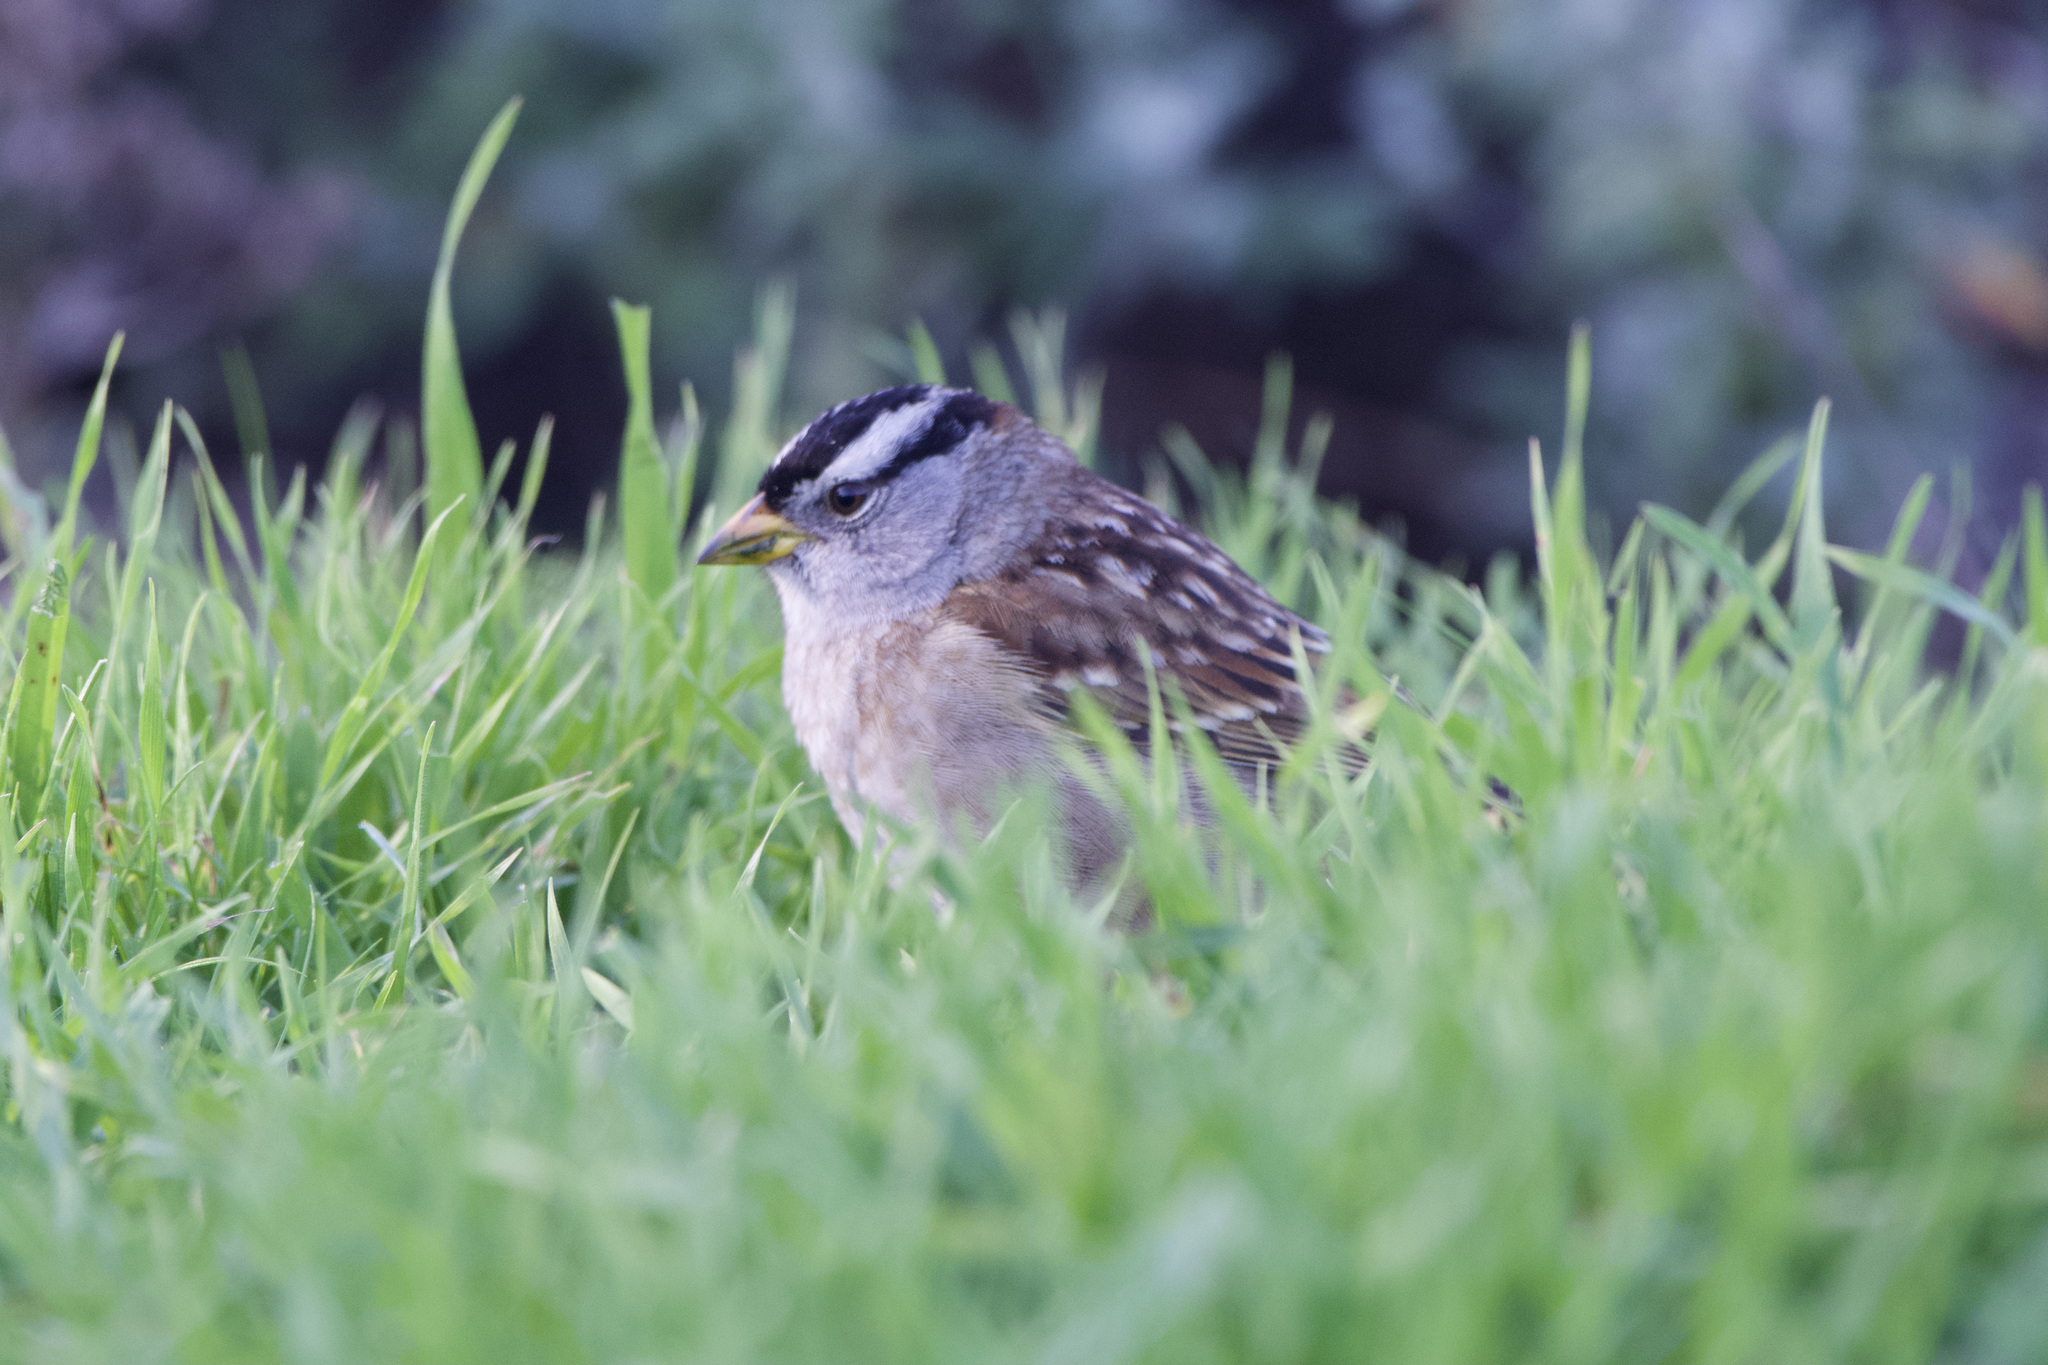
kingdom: Animalia
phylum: Chordata
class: Aves
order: Passeriformes
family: Passerellidae
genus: Zonotrichia
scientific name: Zonotrichia leucophrys
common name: White-crowned sparrow
